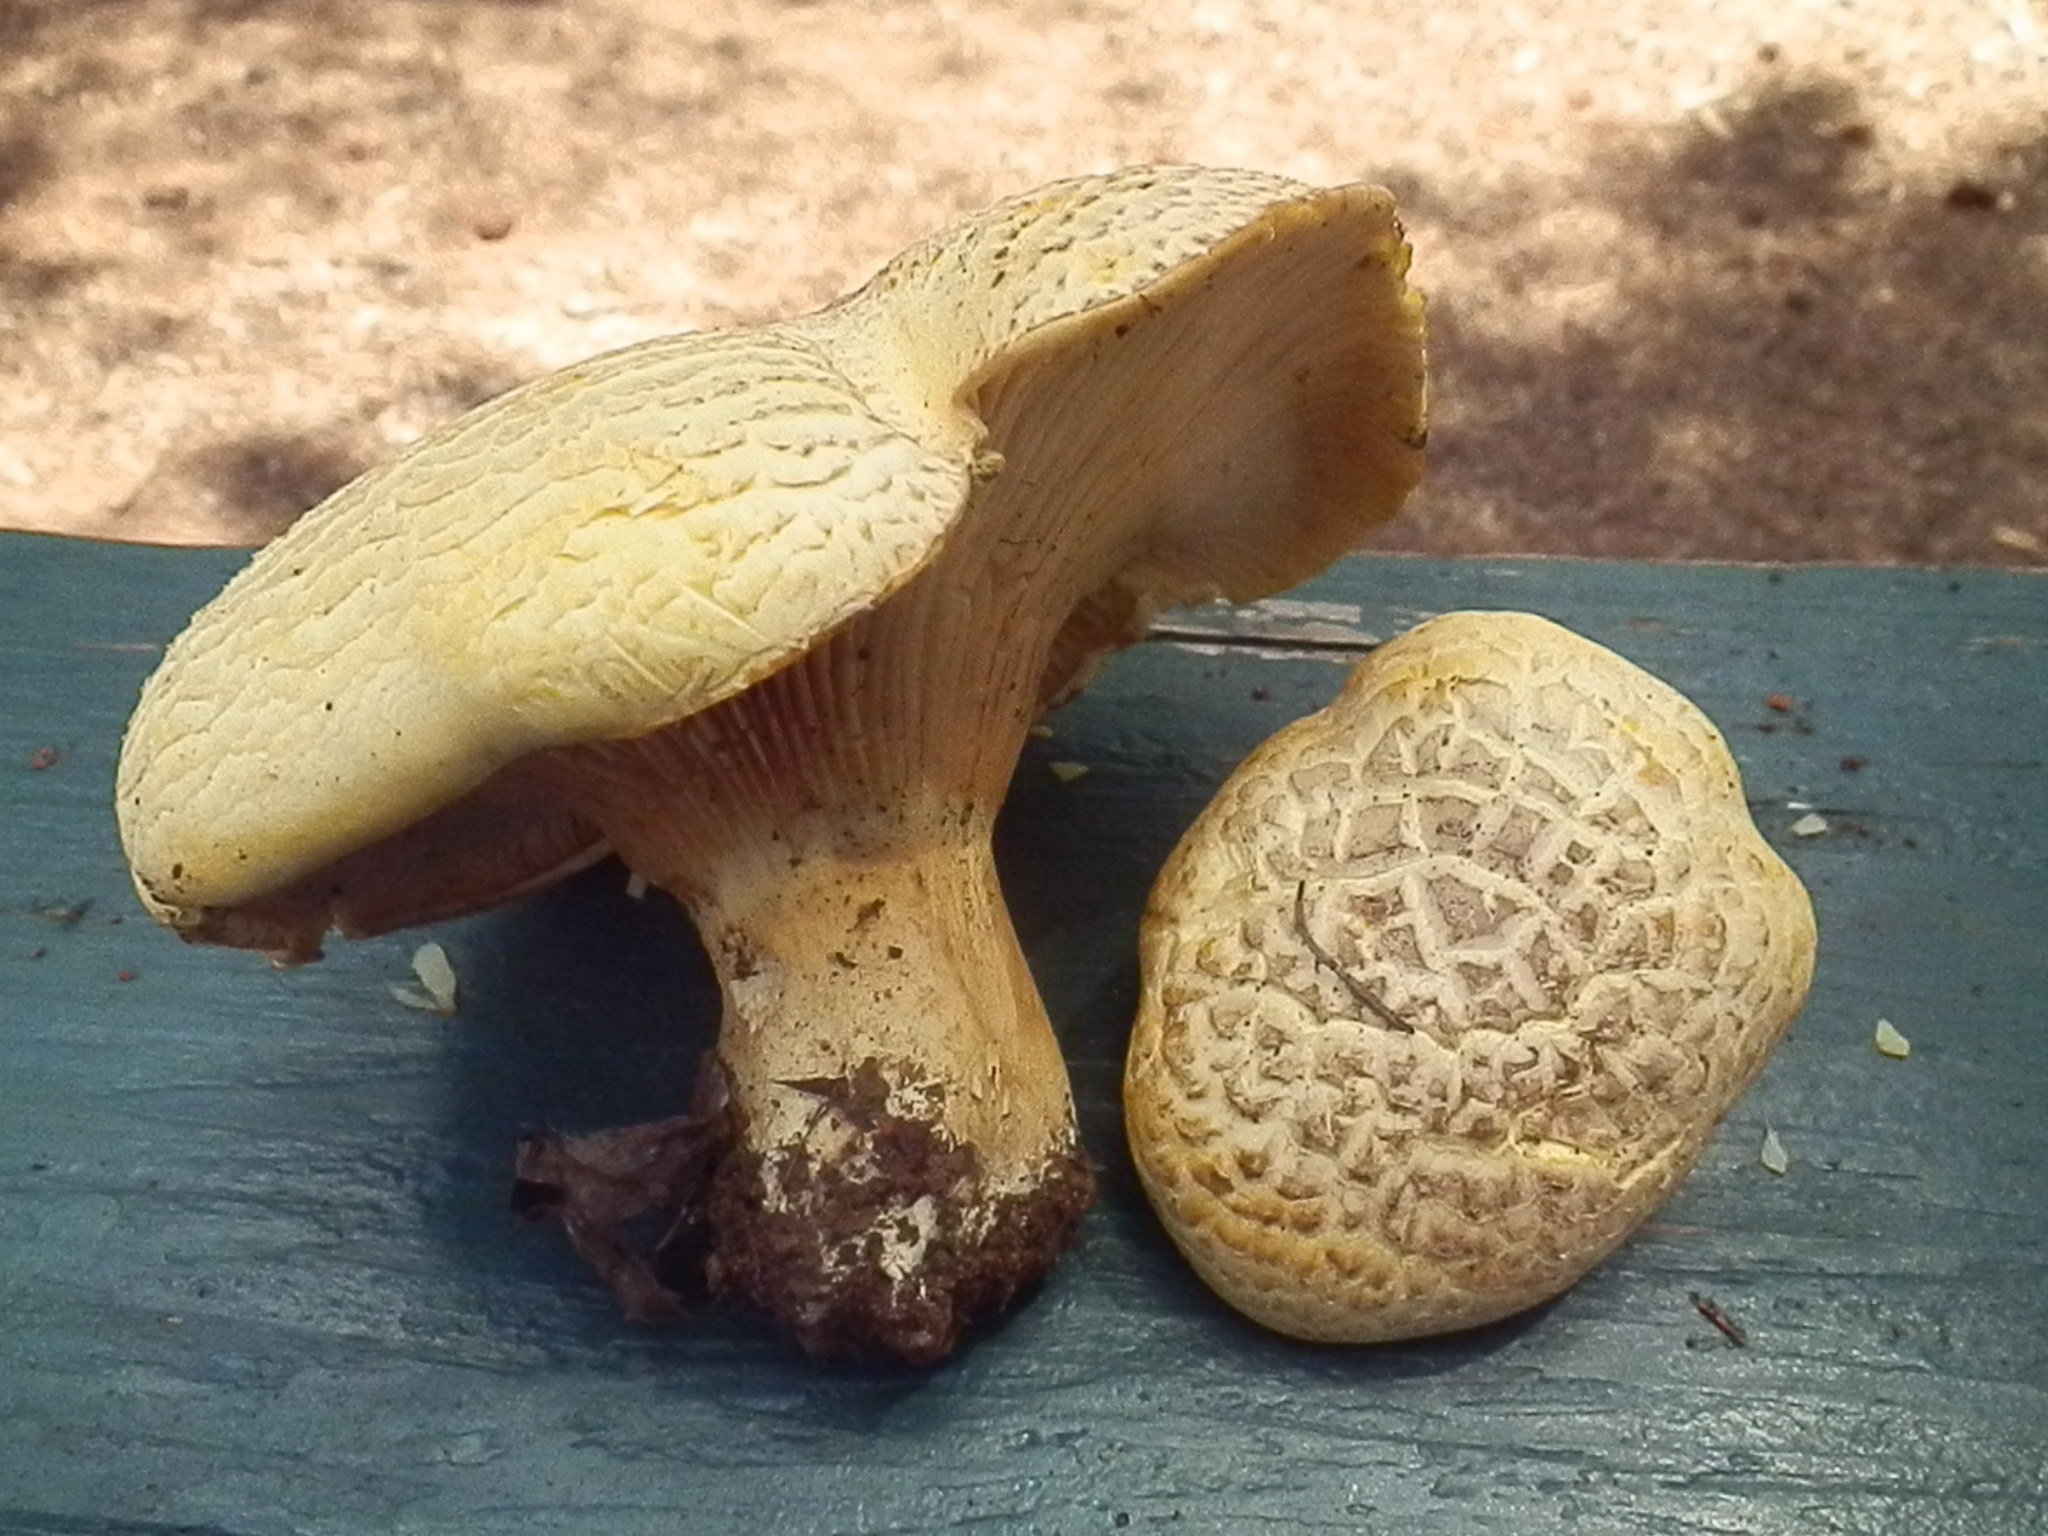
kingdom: Fungi
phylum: Basidiomycota
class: Agaricomycetes
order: Agaricales
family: Hygrophoraceae
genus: Cantharocybe
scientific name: Cantharocybe gruberi
